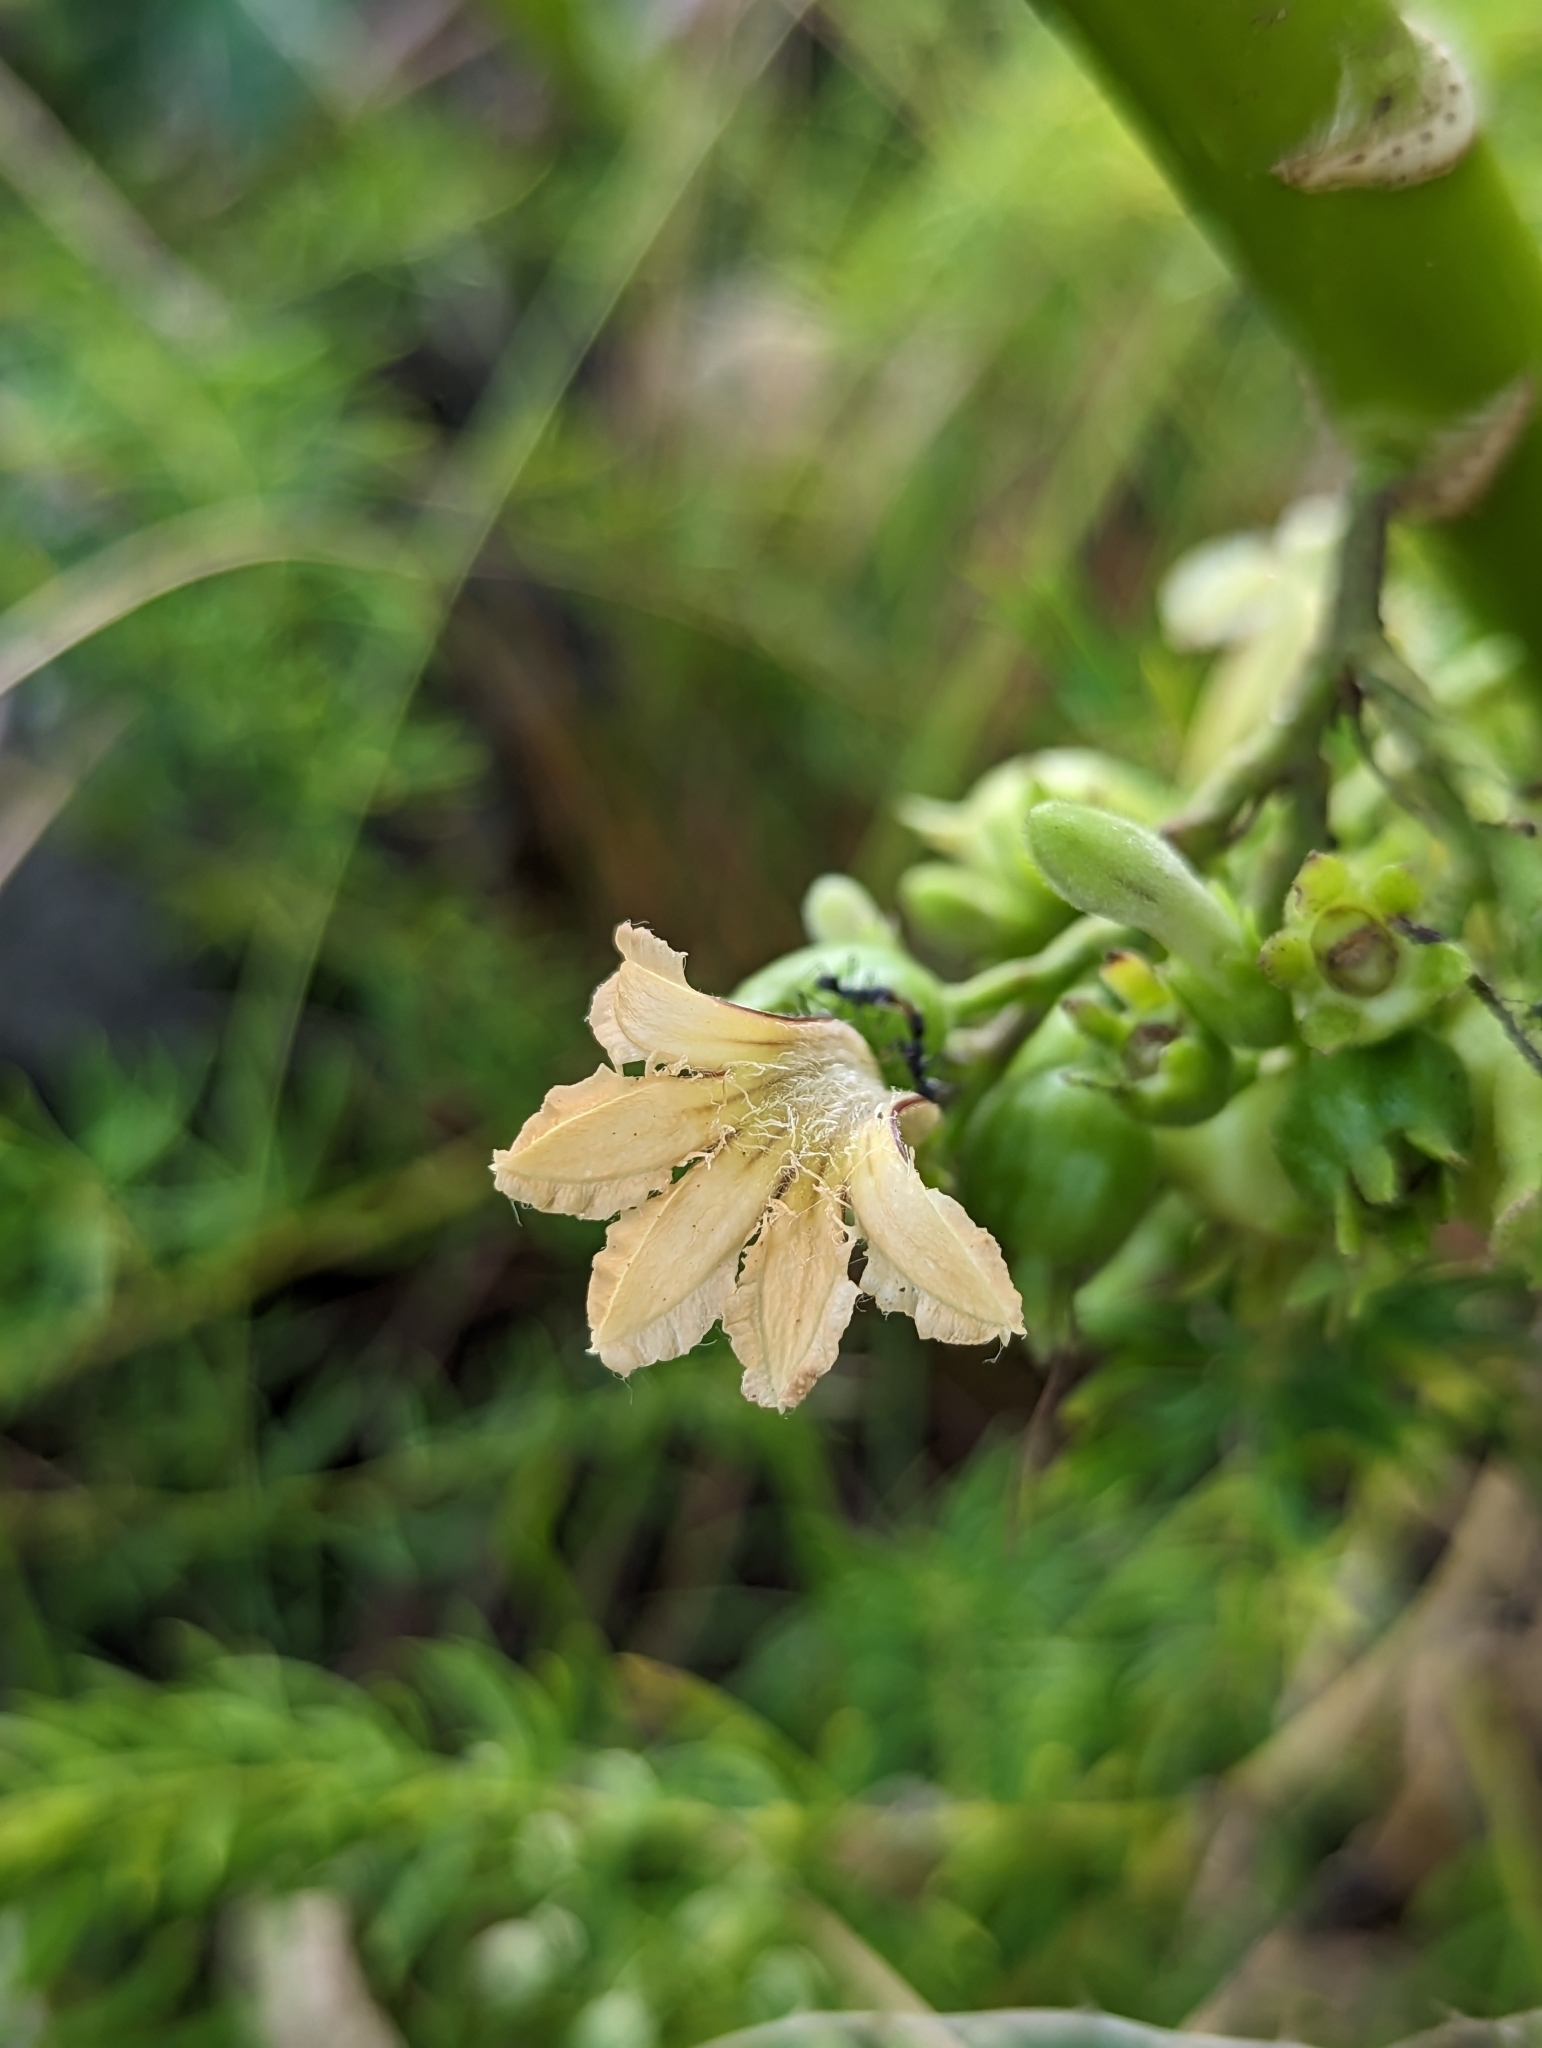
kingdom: Plantae
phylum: Tracheophyta
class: Magnoliopsida
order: Asterales
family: Goodeniaceae
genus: Scaevola
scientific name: Scaevola taccada
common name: Sea lettucetree
